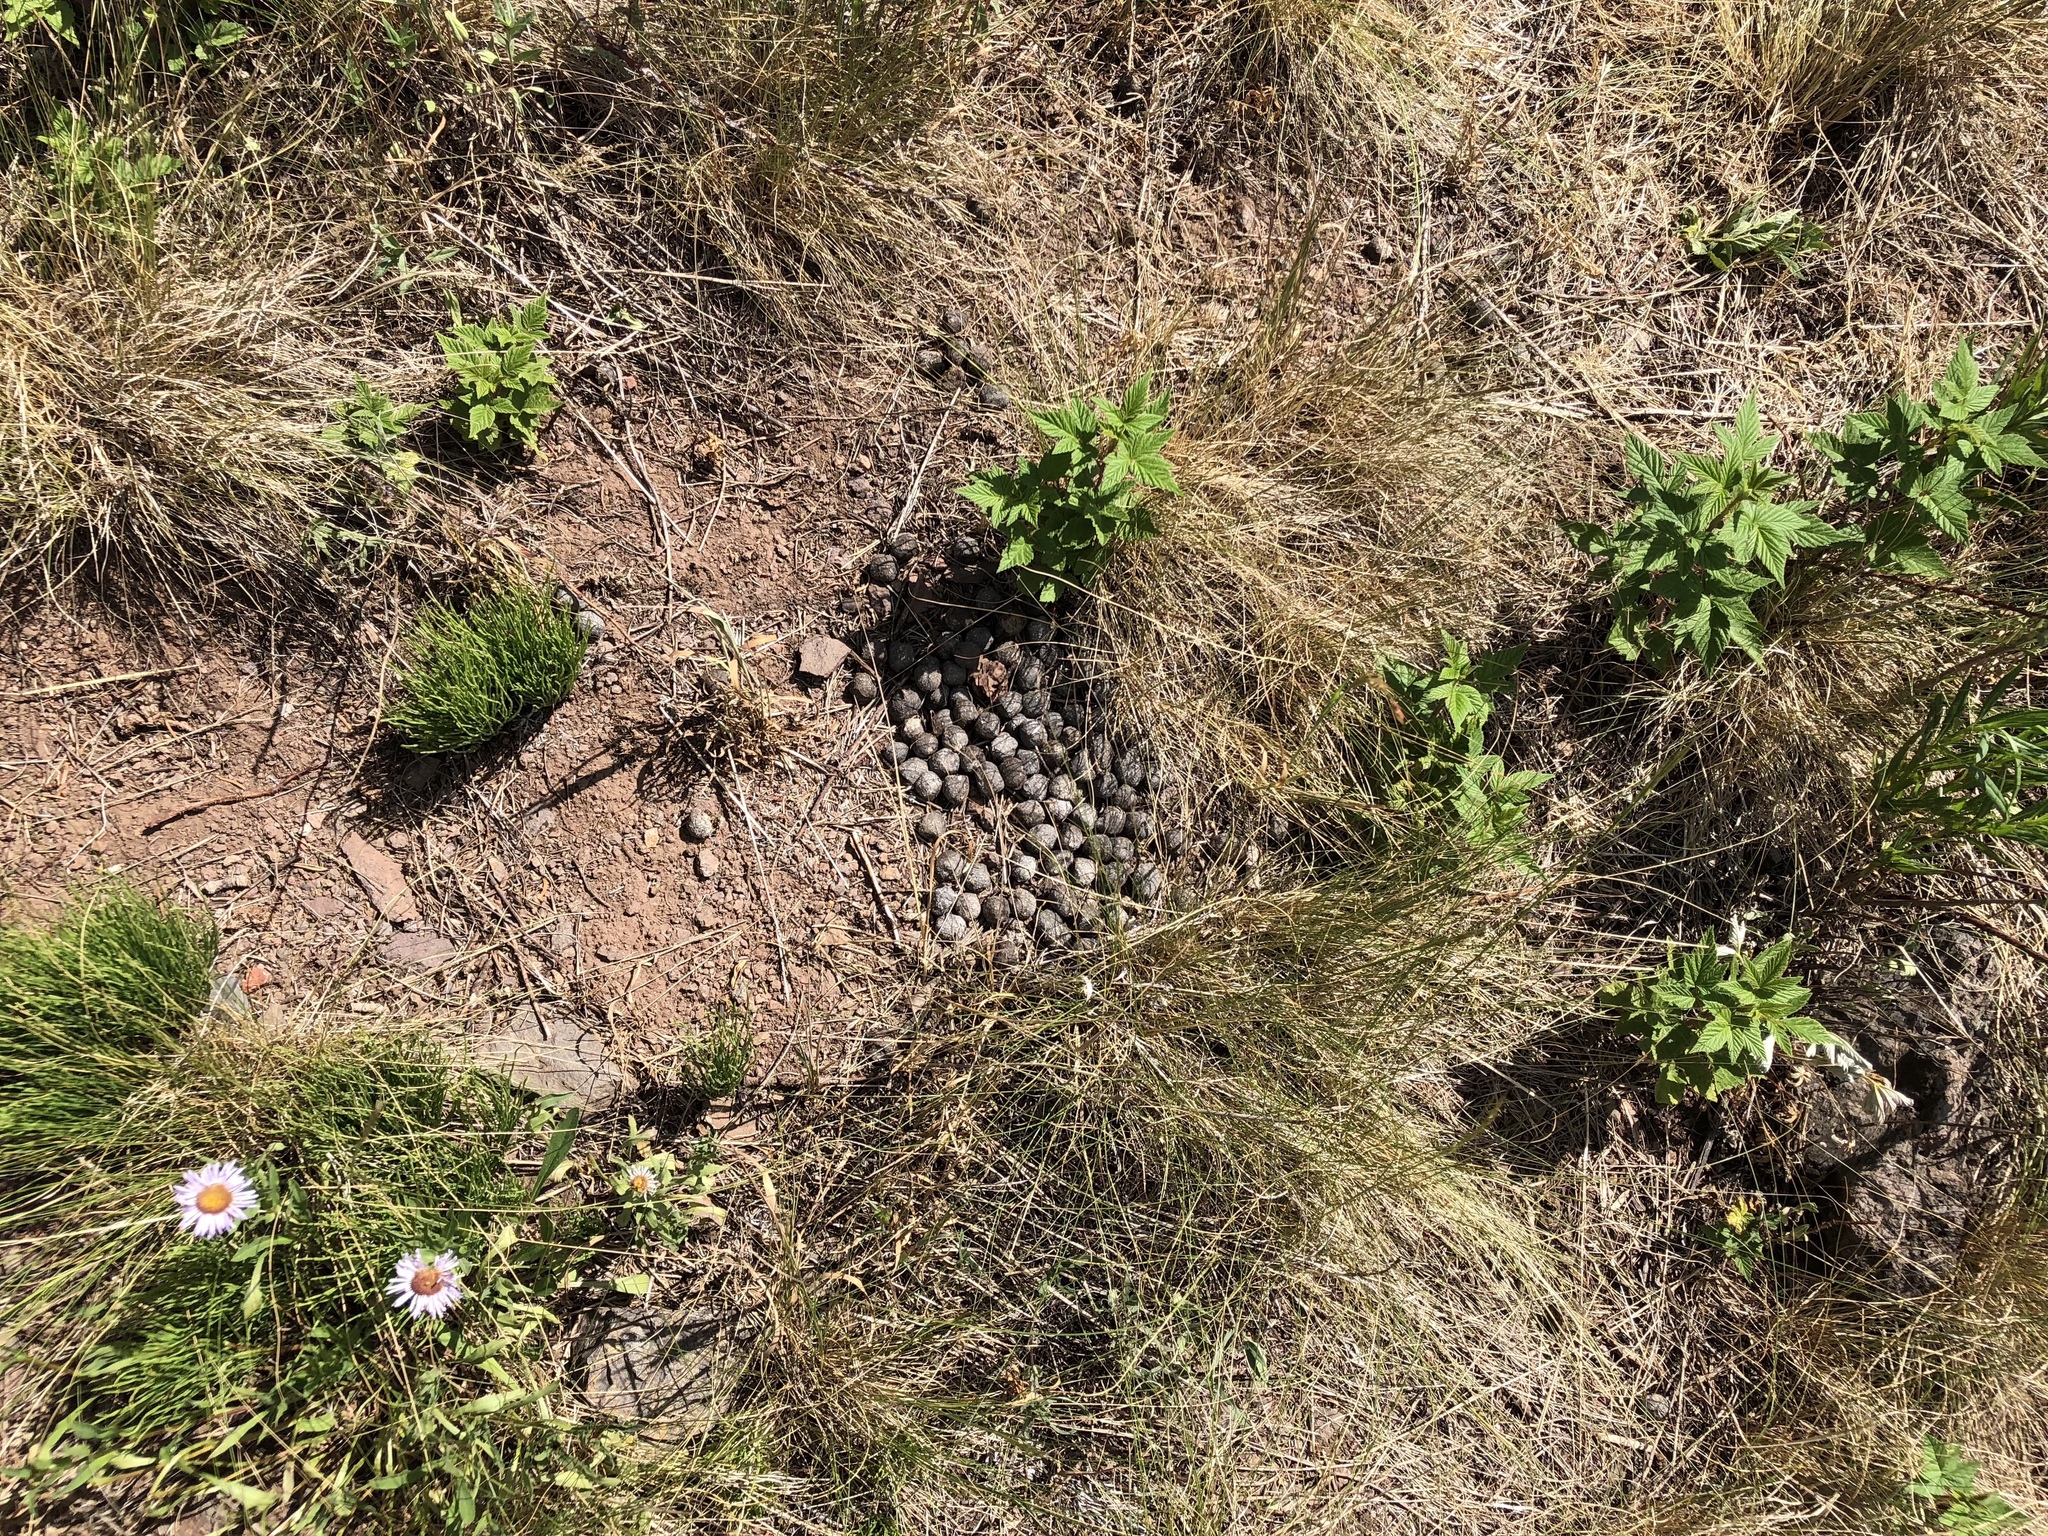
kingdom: Animalia
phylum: Chordata
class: Mammalia
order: Artiodactyla
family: Cervidae
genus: Alces
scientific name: Alces alces
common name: Moose
